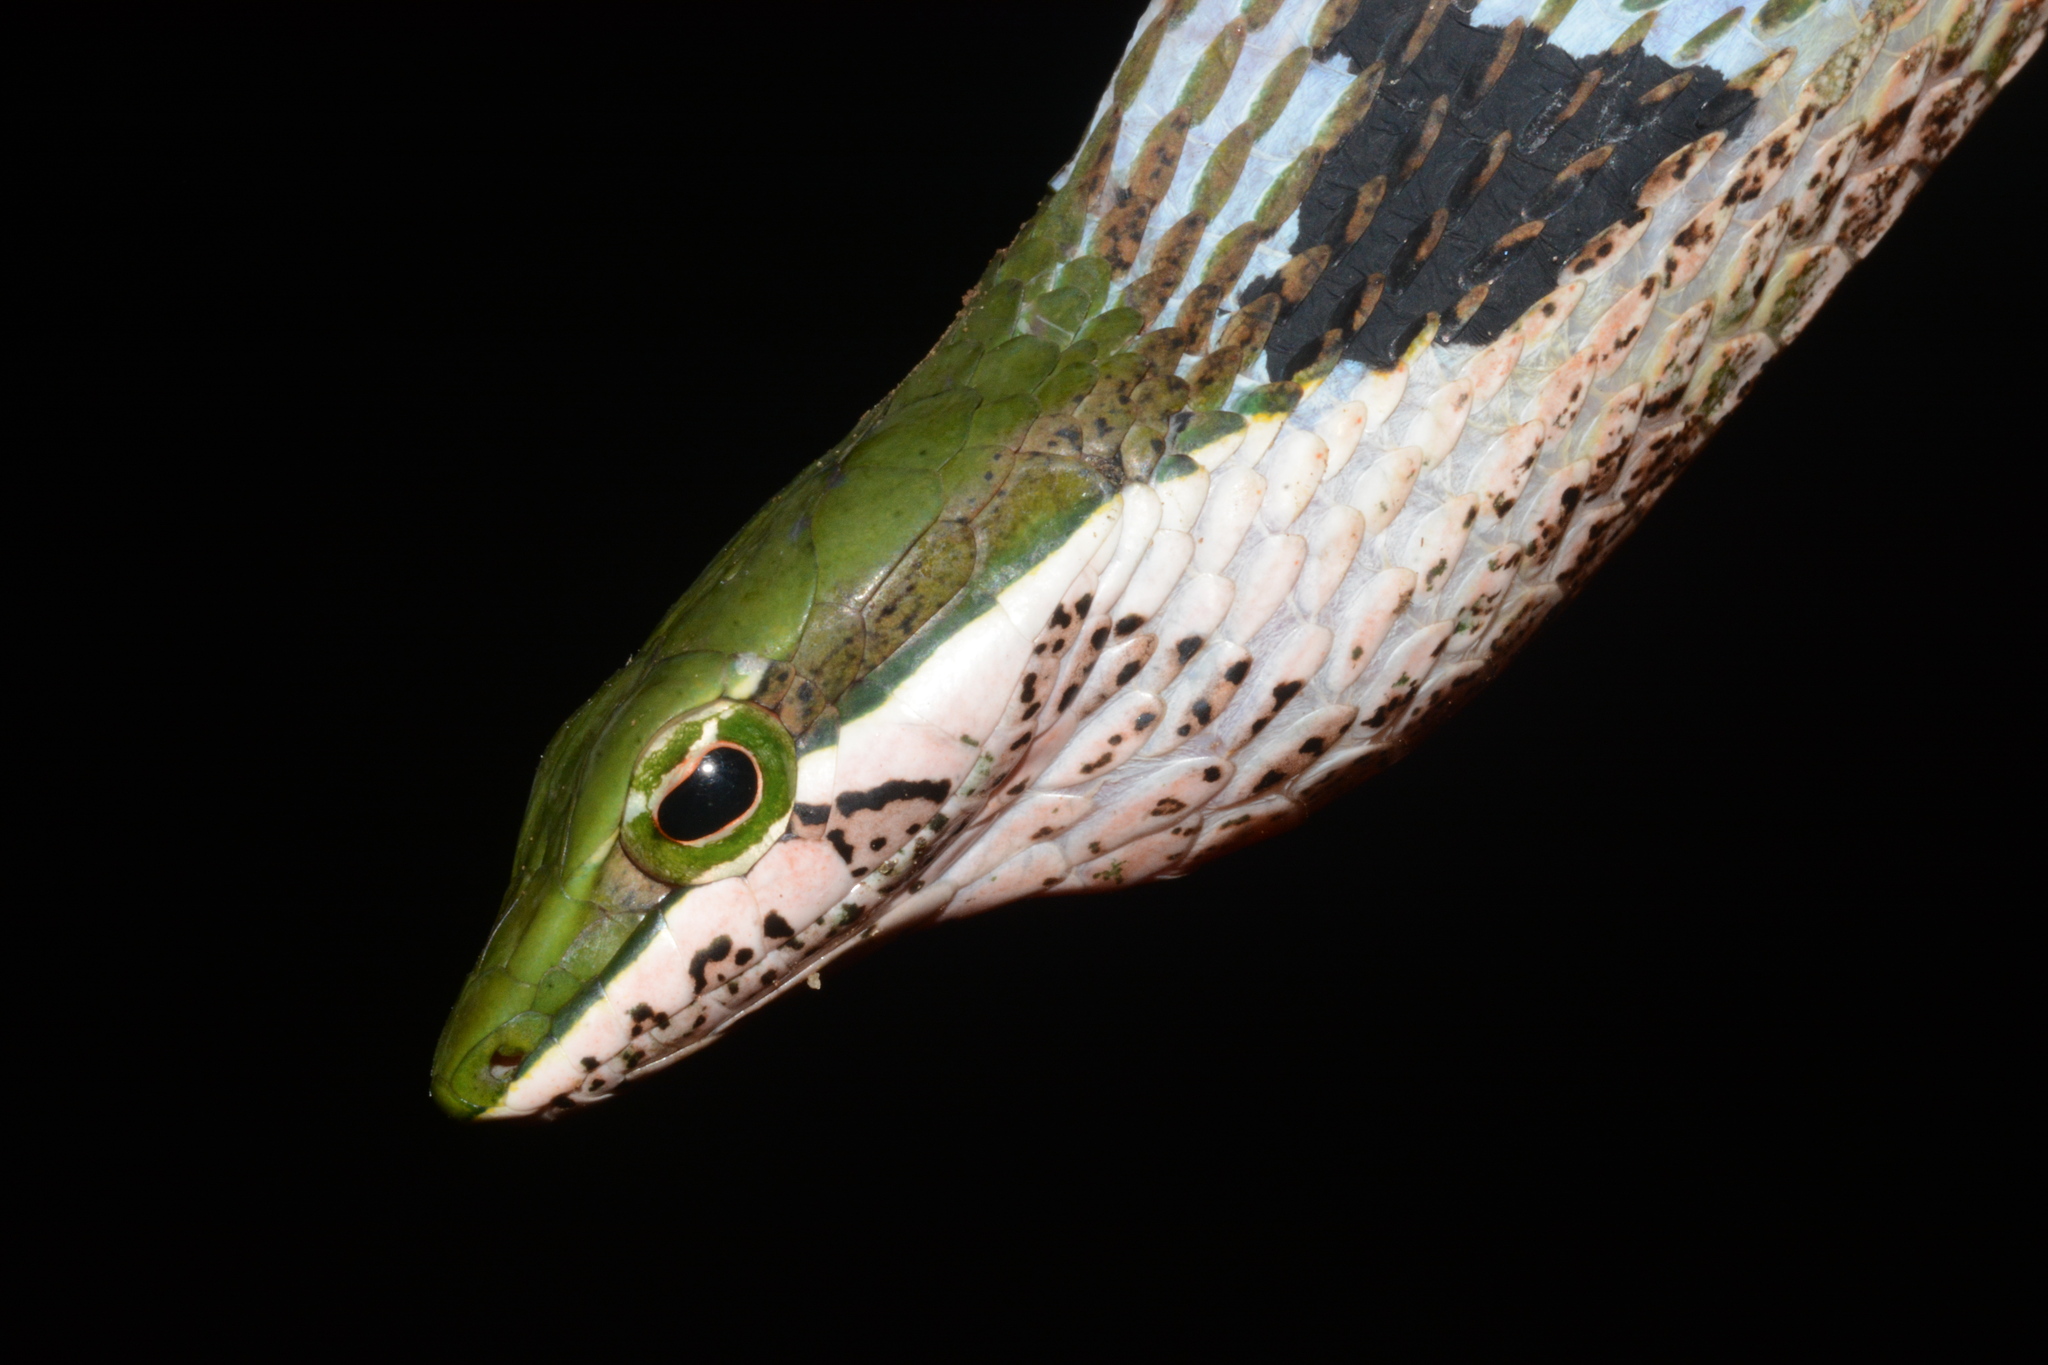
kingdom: Animalia
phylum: Chordata
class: Squamata
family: Colubridae
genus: Thelotornis
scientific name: Thelotornis usambaricus
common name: Usambara vine snake
